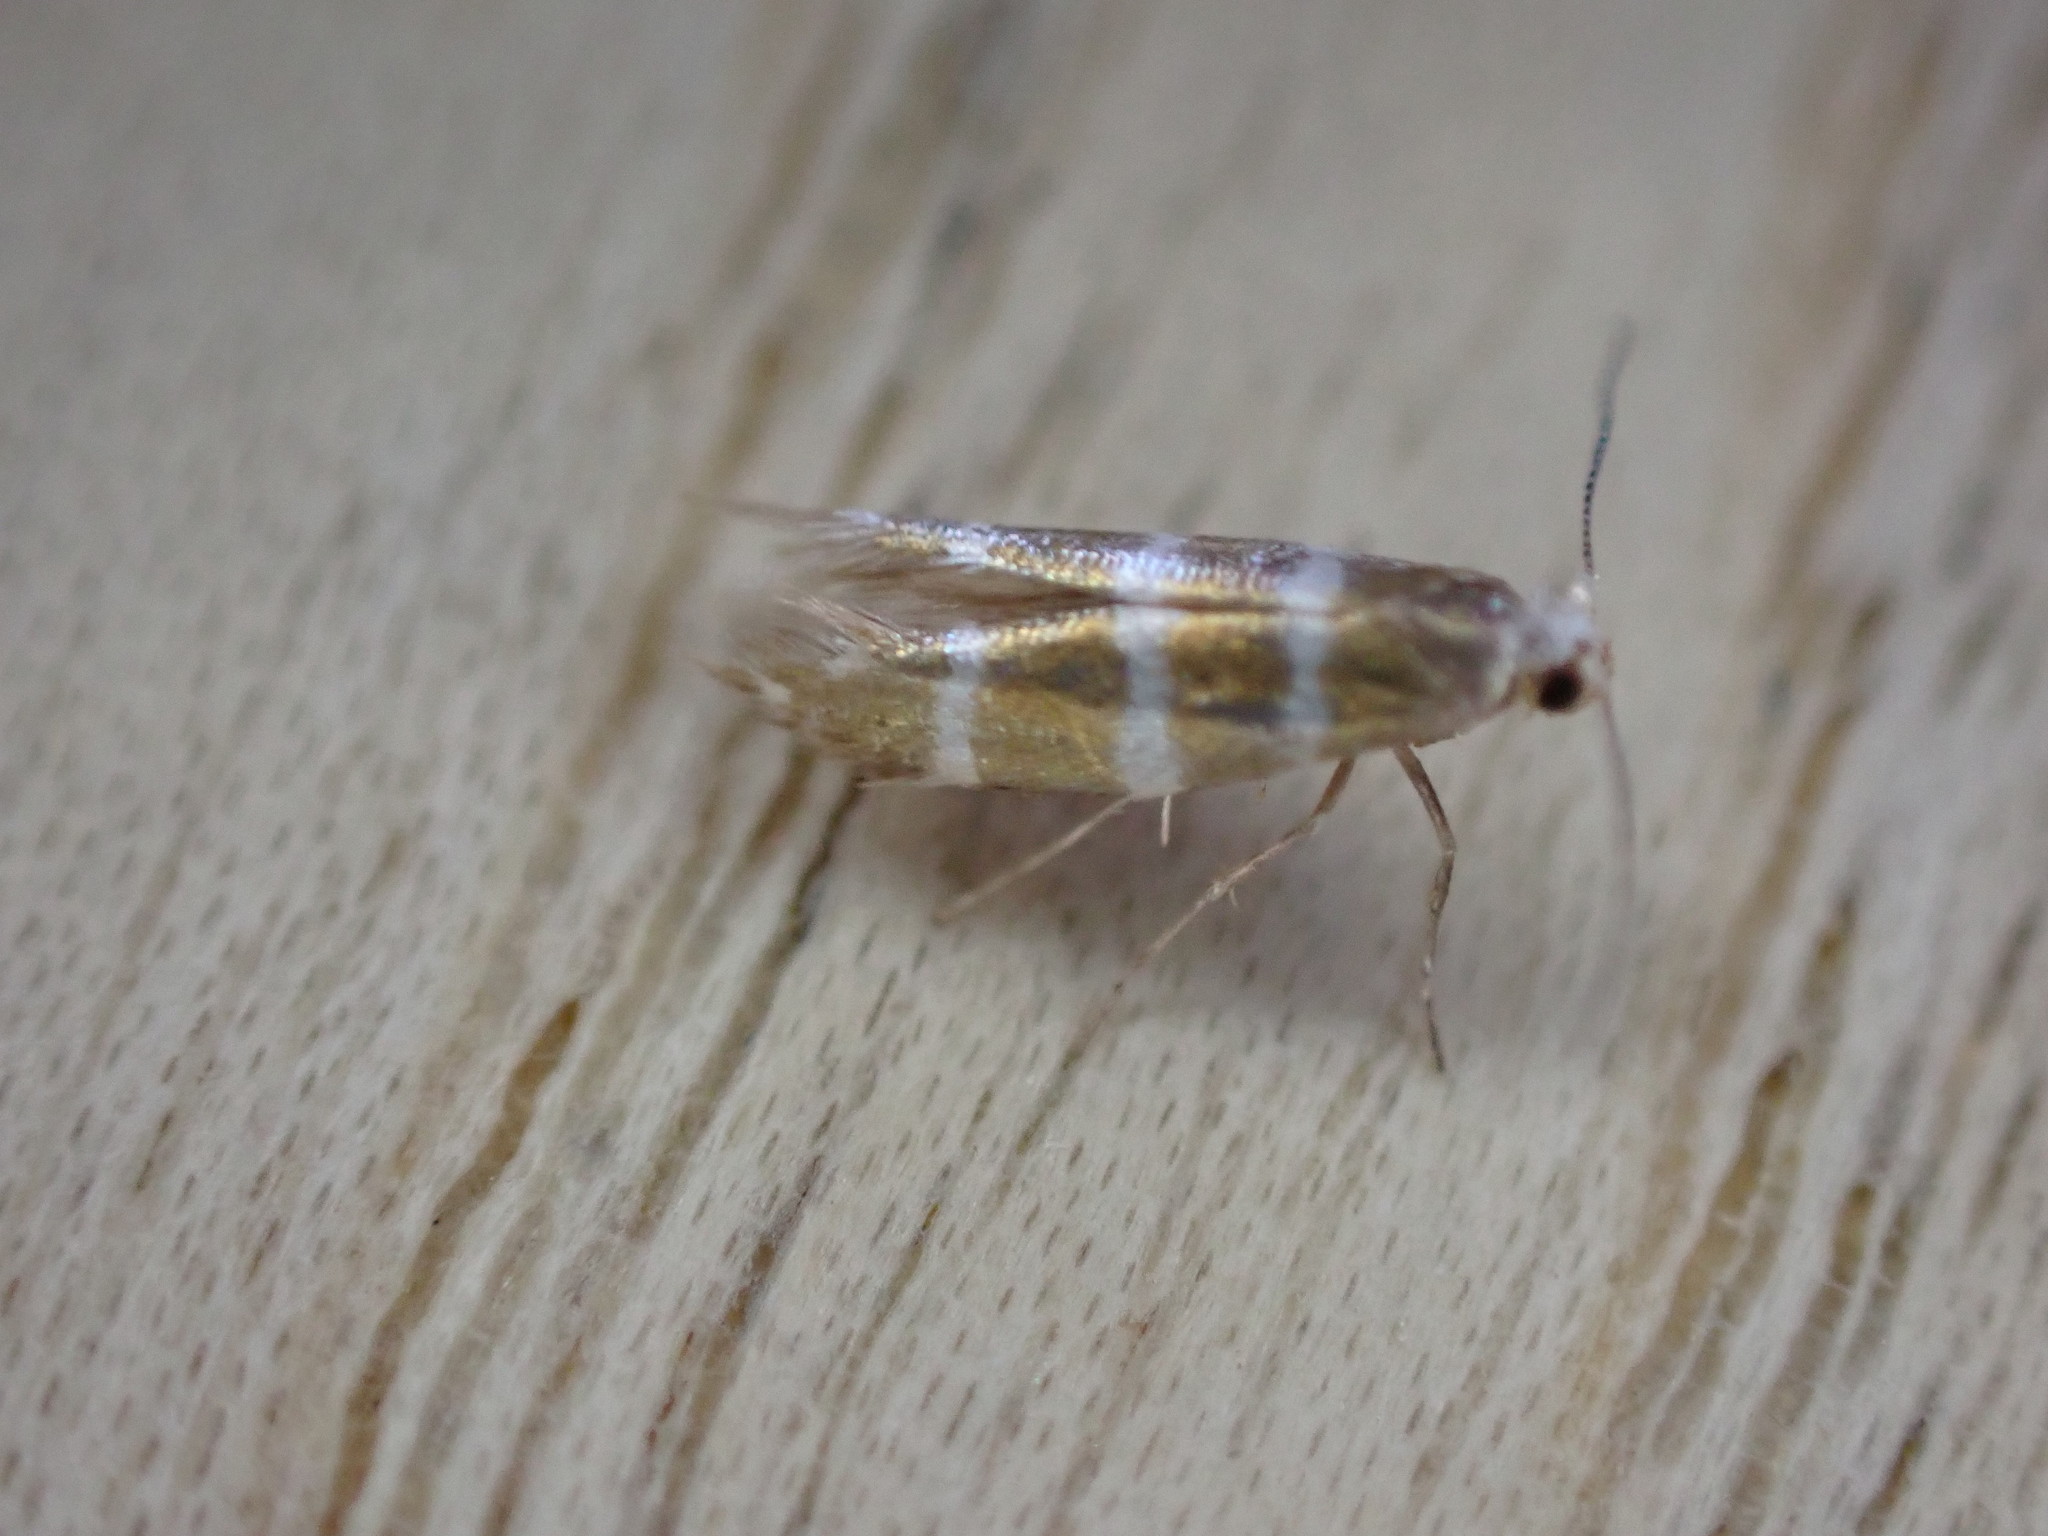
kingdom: Animalia
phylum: Arthropoda
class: Insecta
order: Lepidoptera
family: Argyresthiidae
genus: Argyresthia
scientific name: Argyresthia trifasciata
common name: Triple-barred argent
